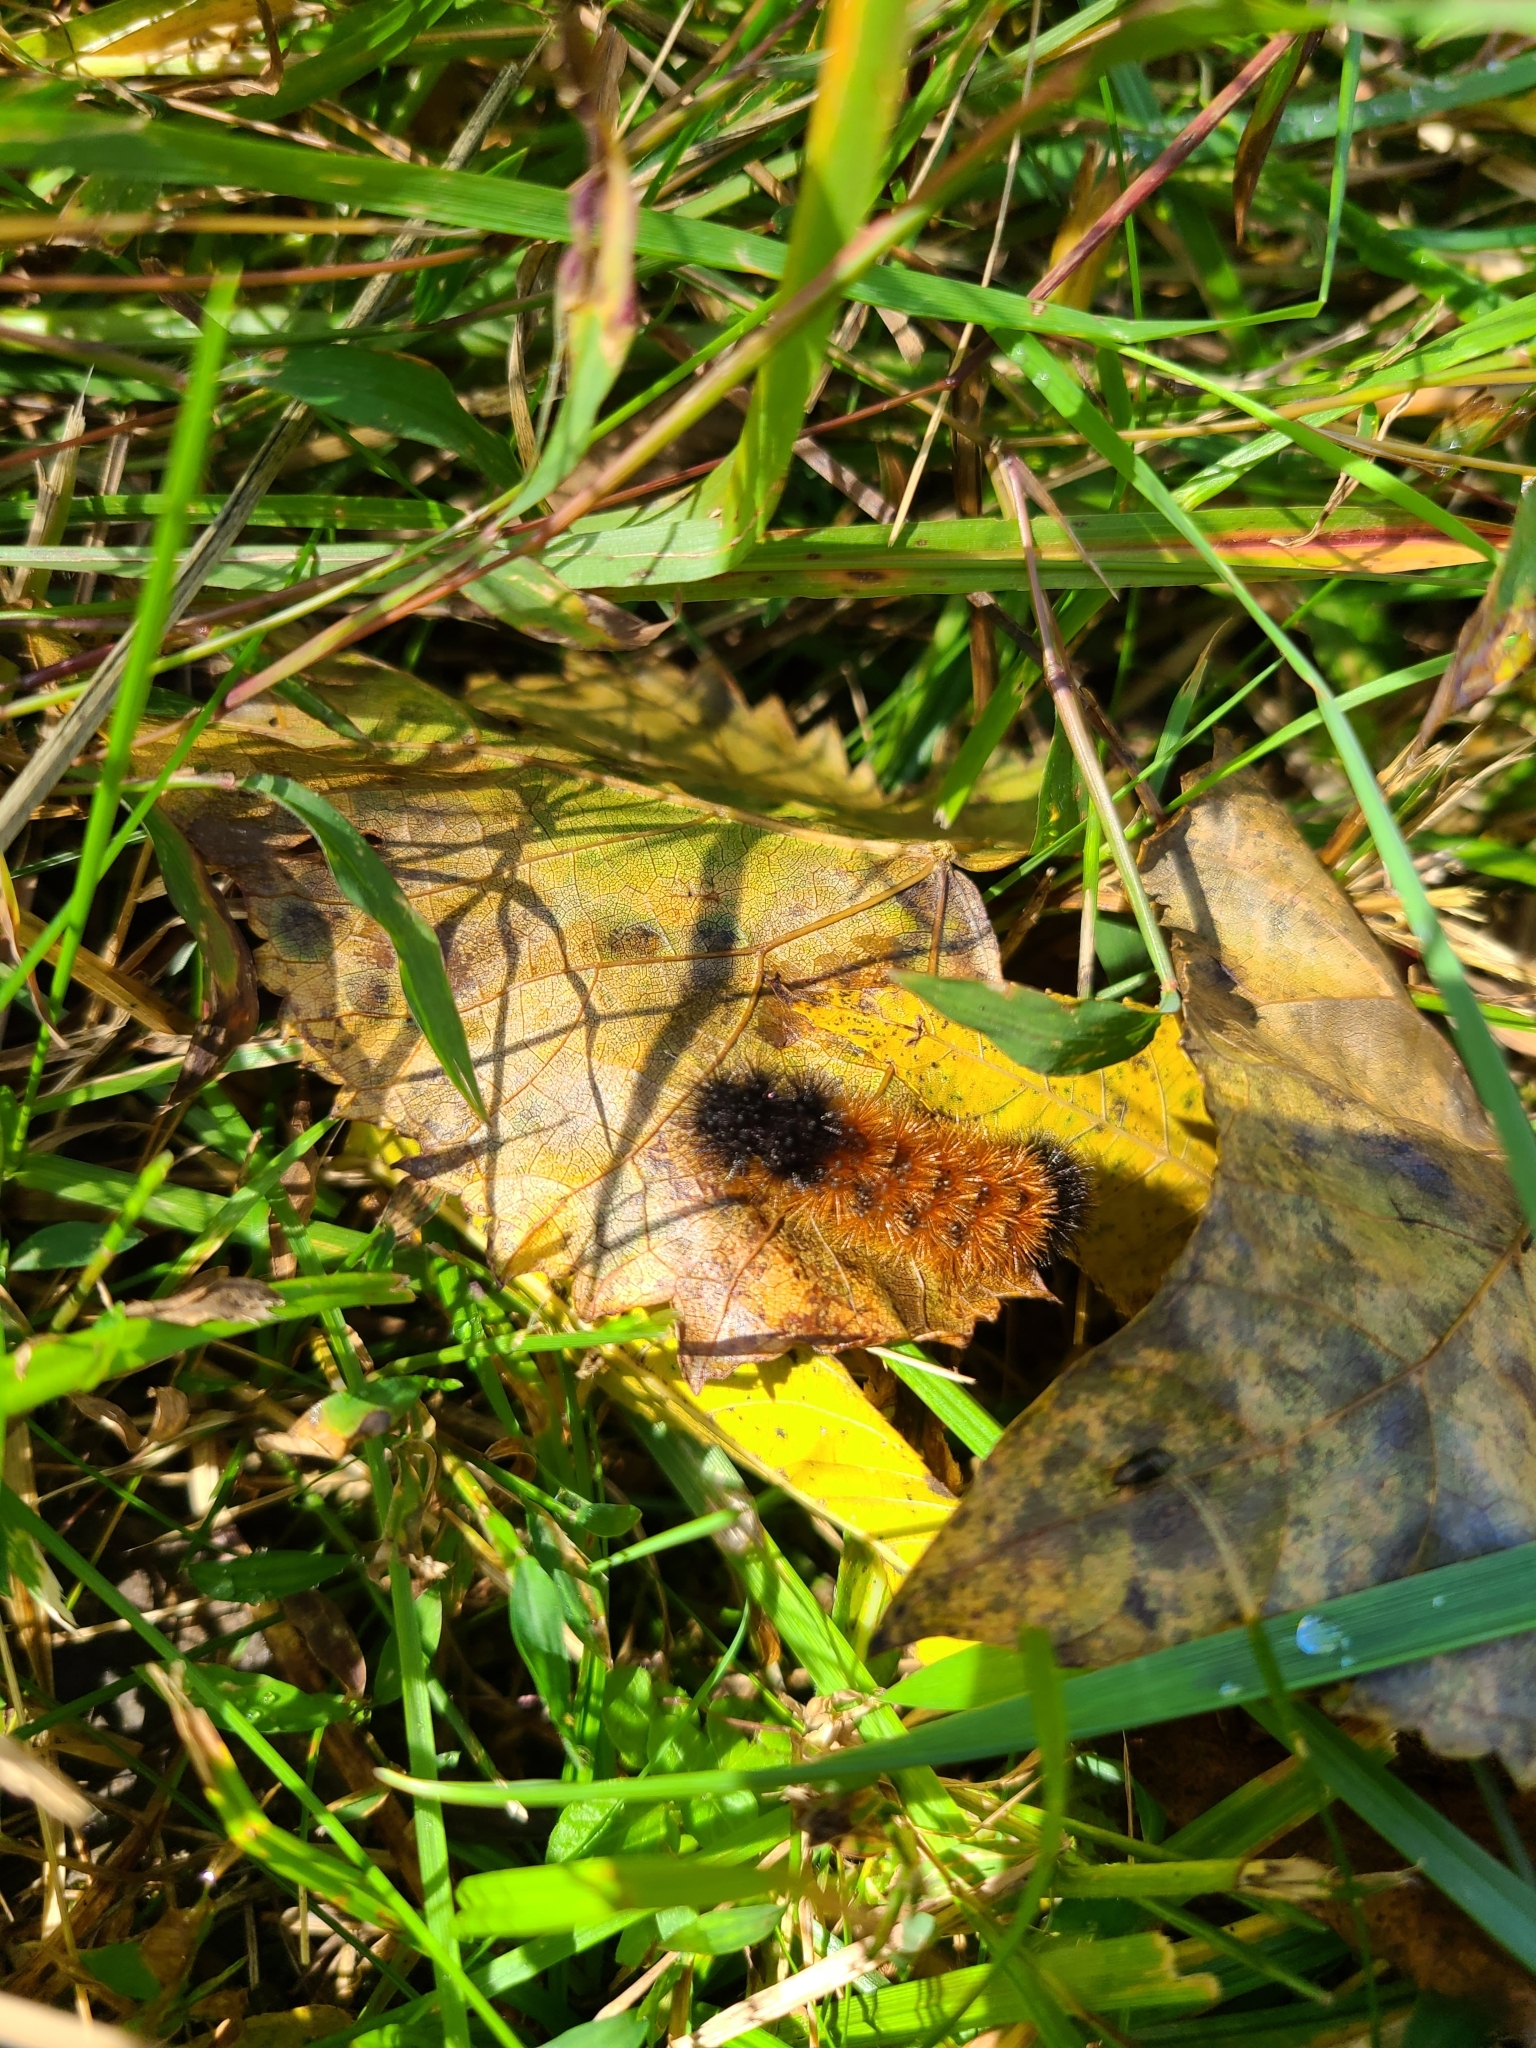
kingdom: Animalia
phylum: Arthropoda
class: Insecta
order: Lepidoptera
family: Erebidae
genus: Pyrrharctia
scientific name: Pyrrharctia isabella
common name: Isabella tiger moth
